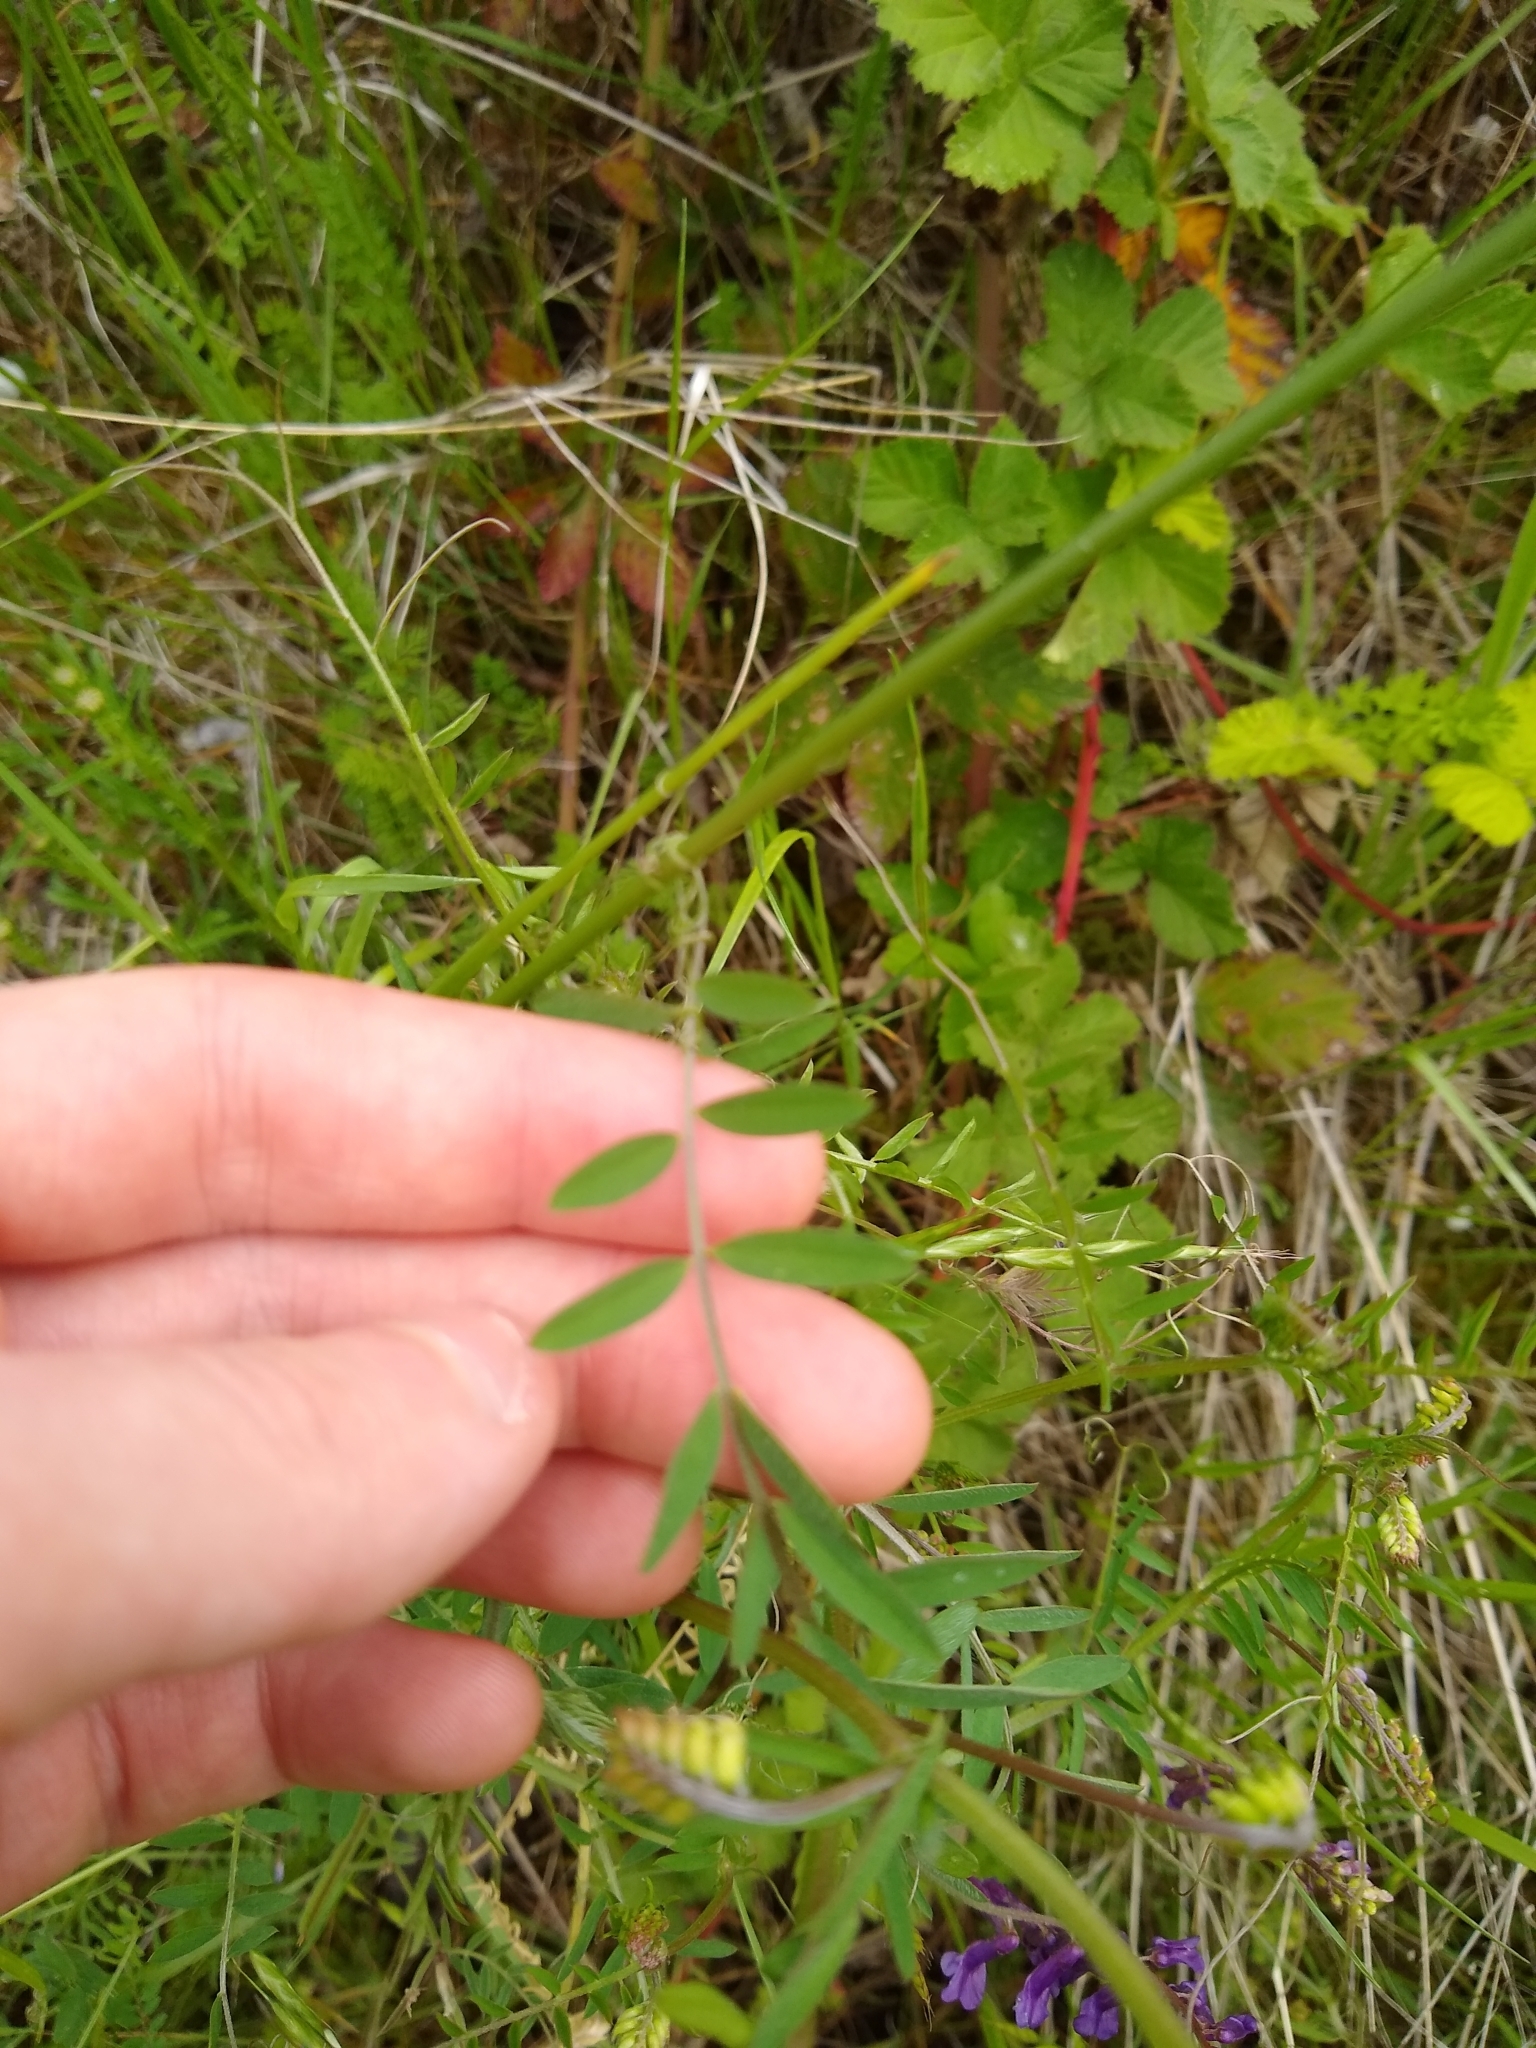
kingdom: Plantae
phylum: Tracheophyta
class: Magnoliopsida
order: Fabales
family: Fabaceae
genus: Vicia
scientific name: Vicia villosa
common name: Fodder vetch
